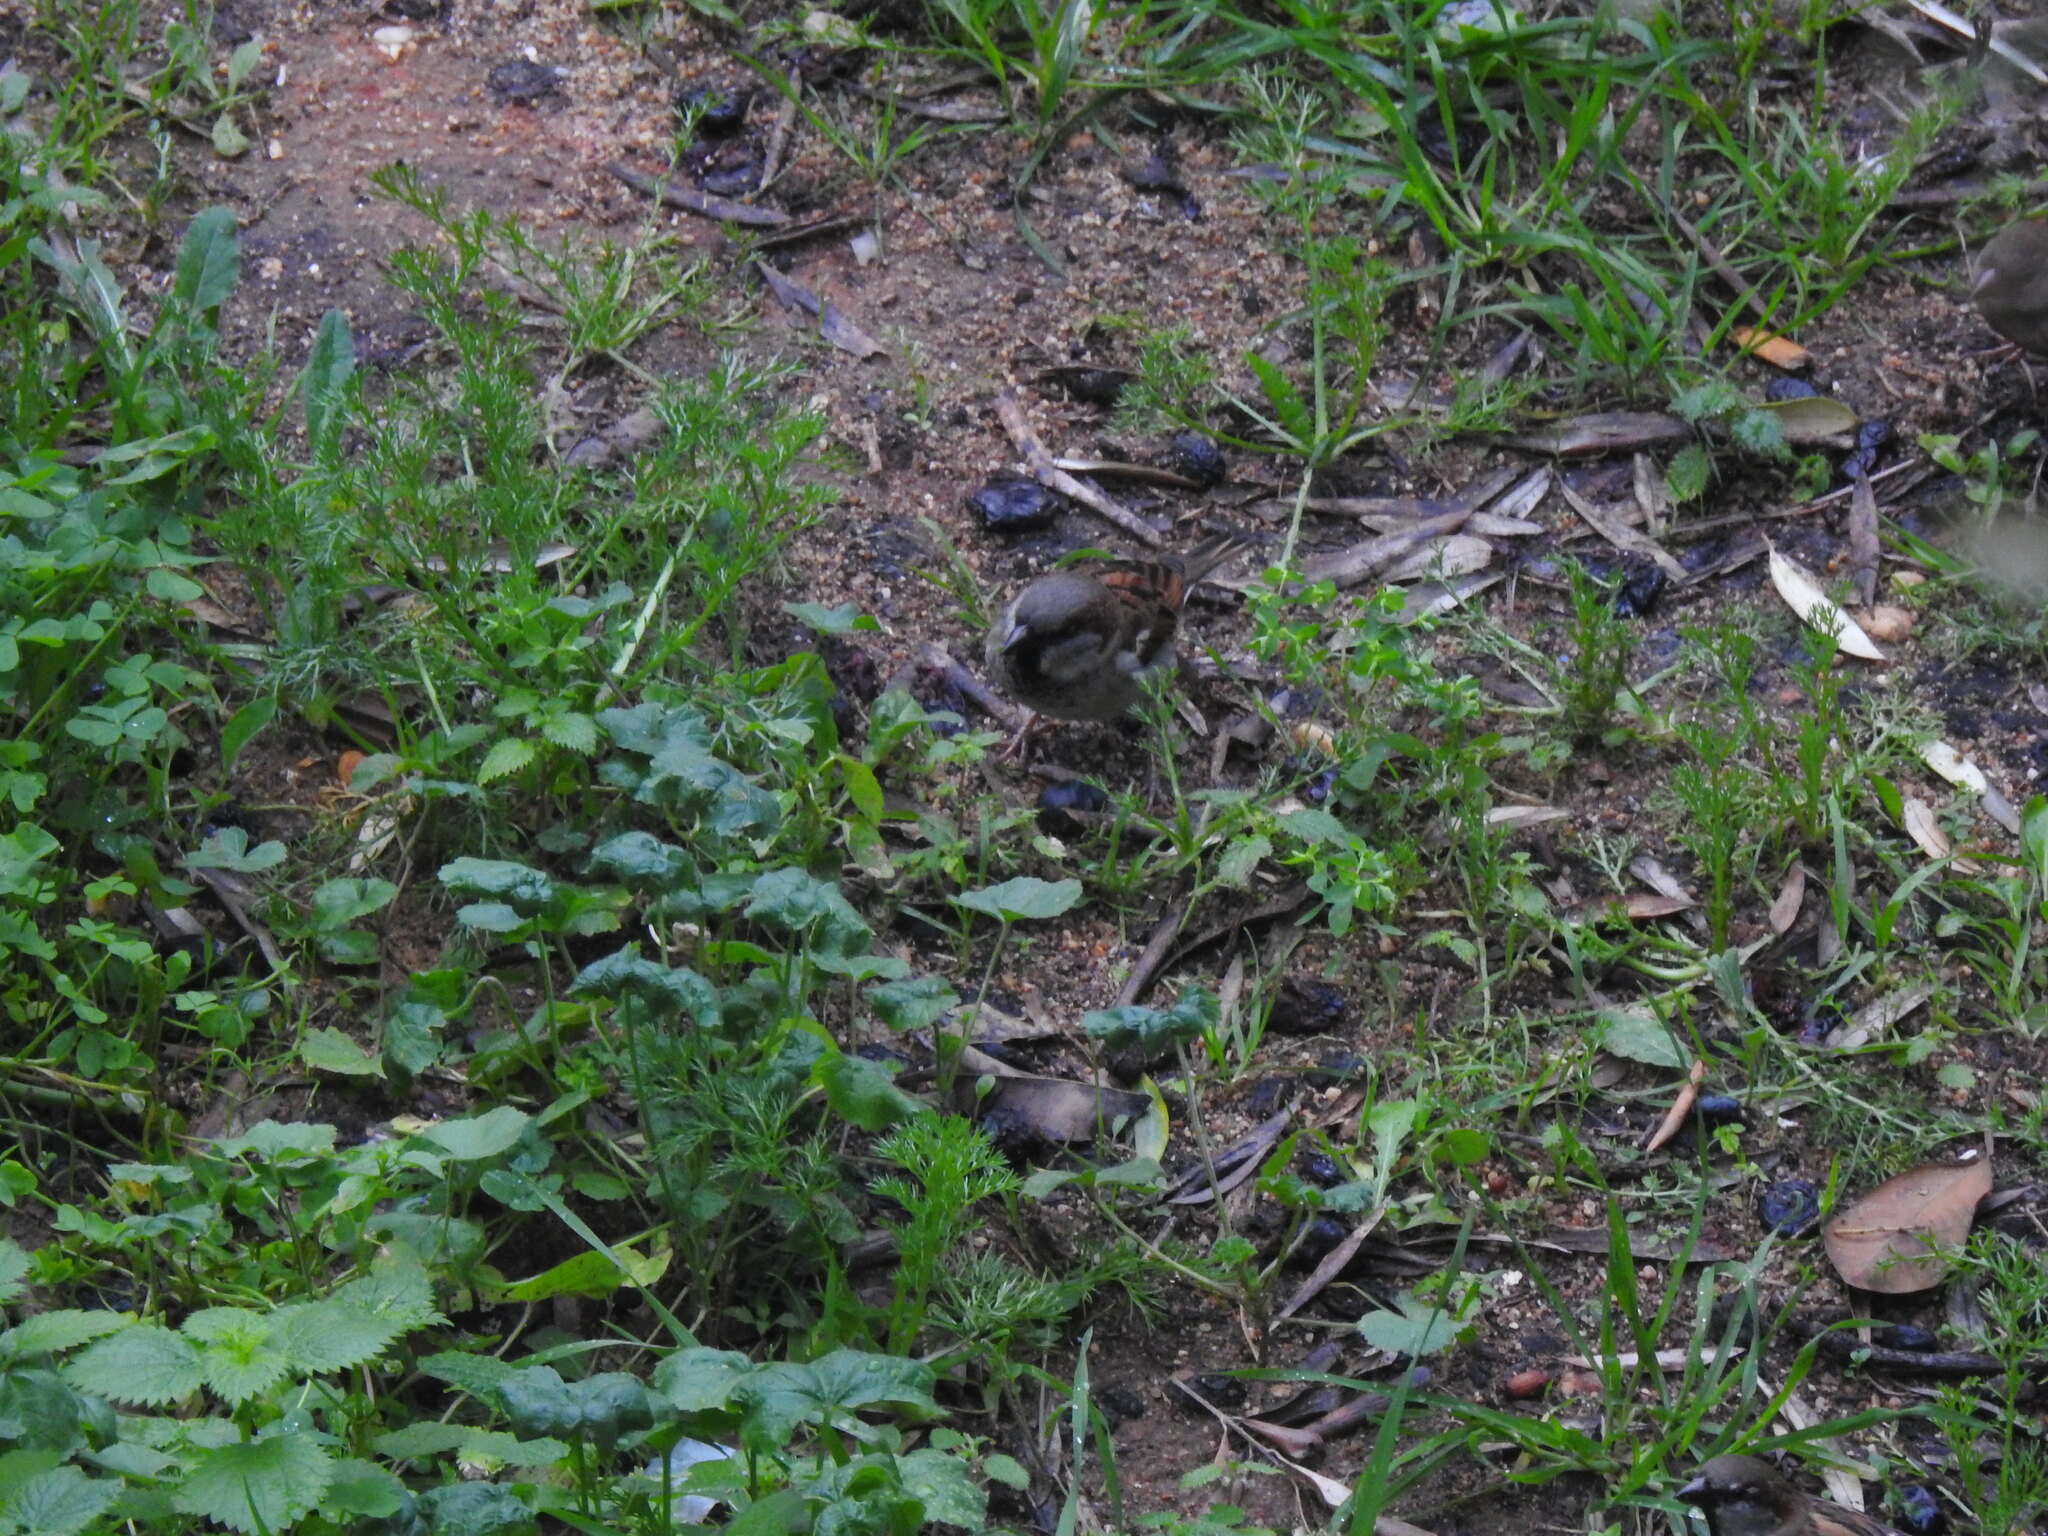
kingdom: Animalia
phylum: Chordata
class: Aves
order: Passeriformes
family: Passeridae
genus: Passer
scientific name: Passer domesticus
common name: House sparrow
